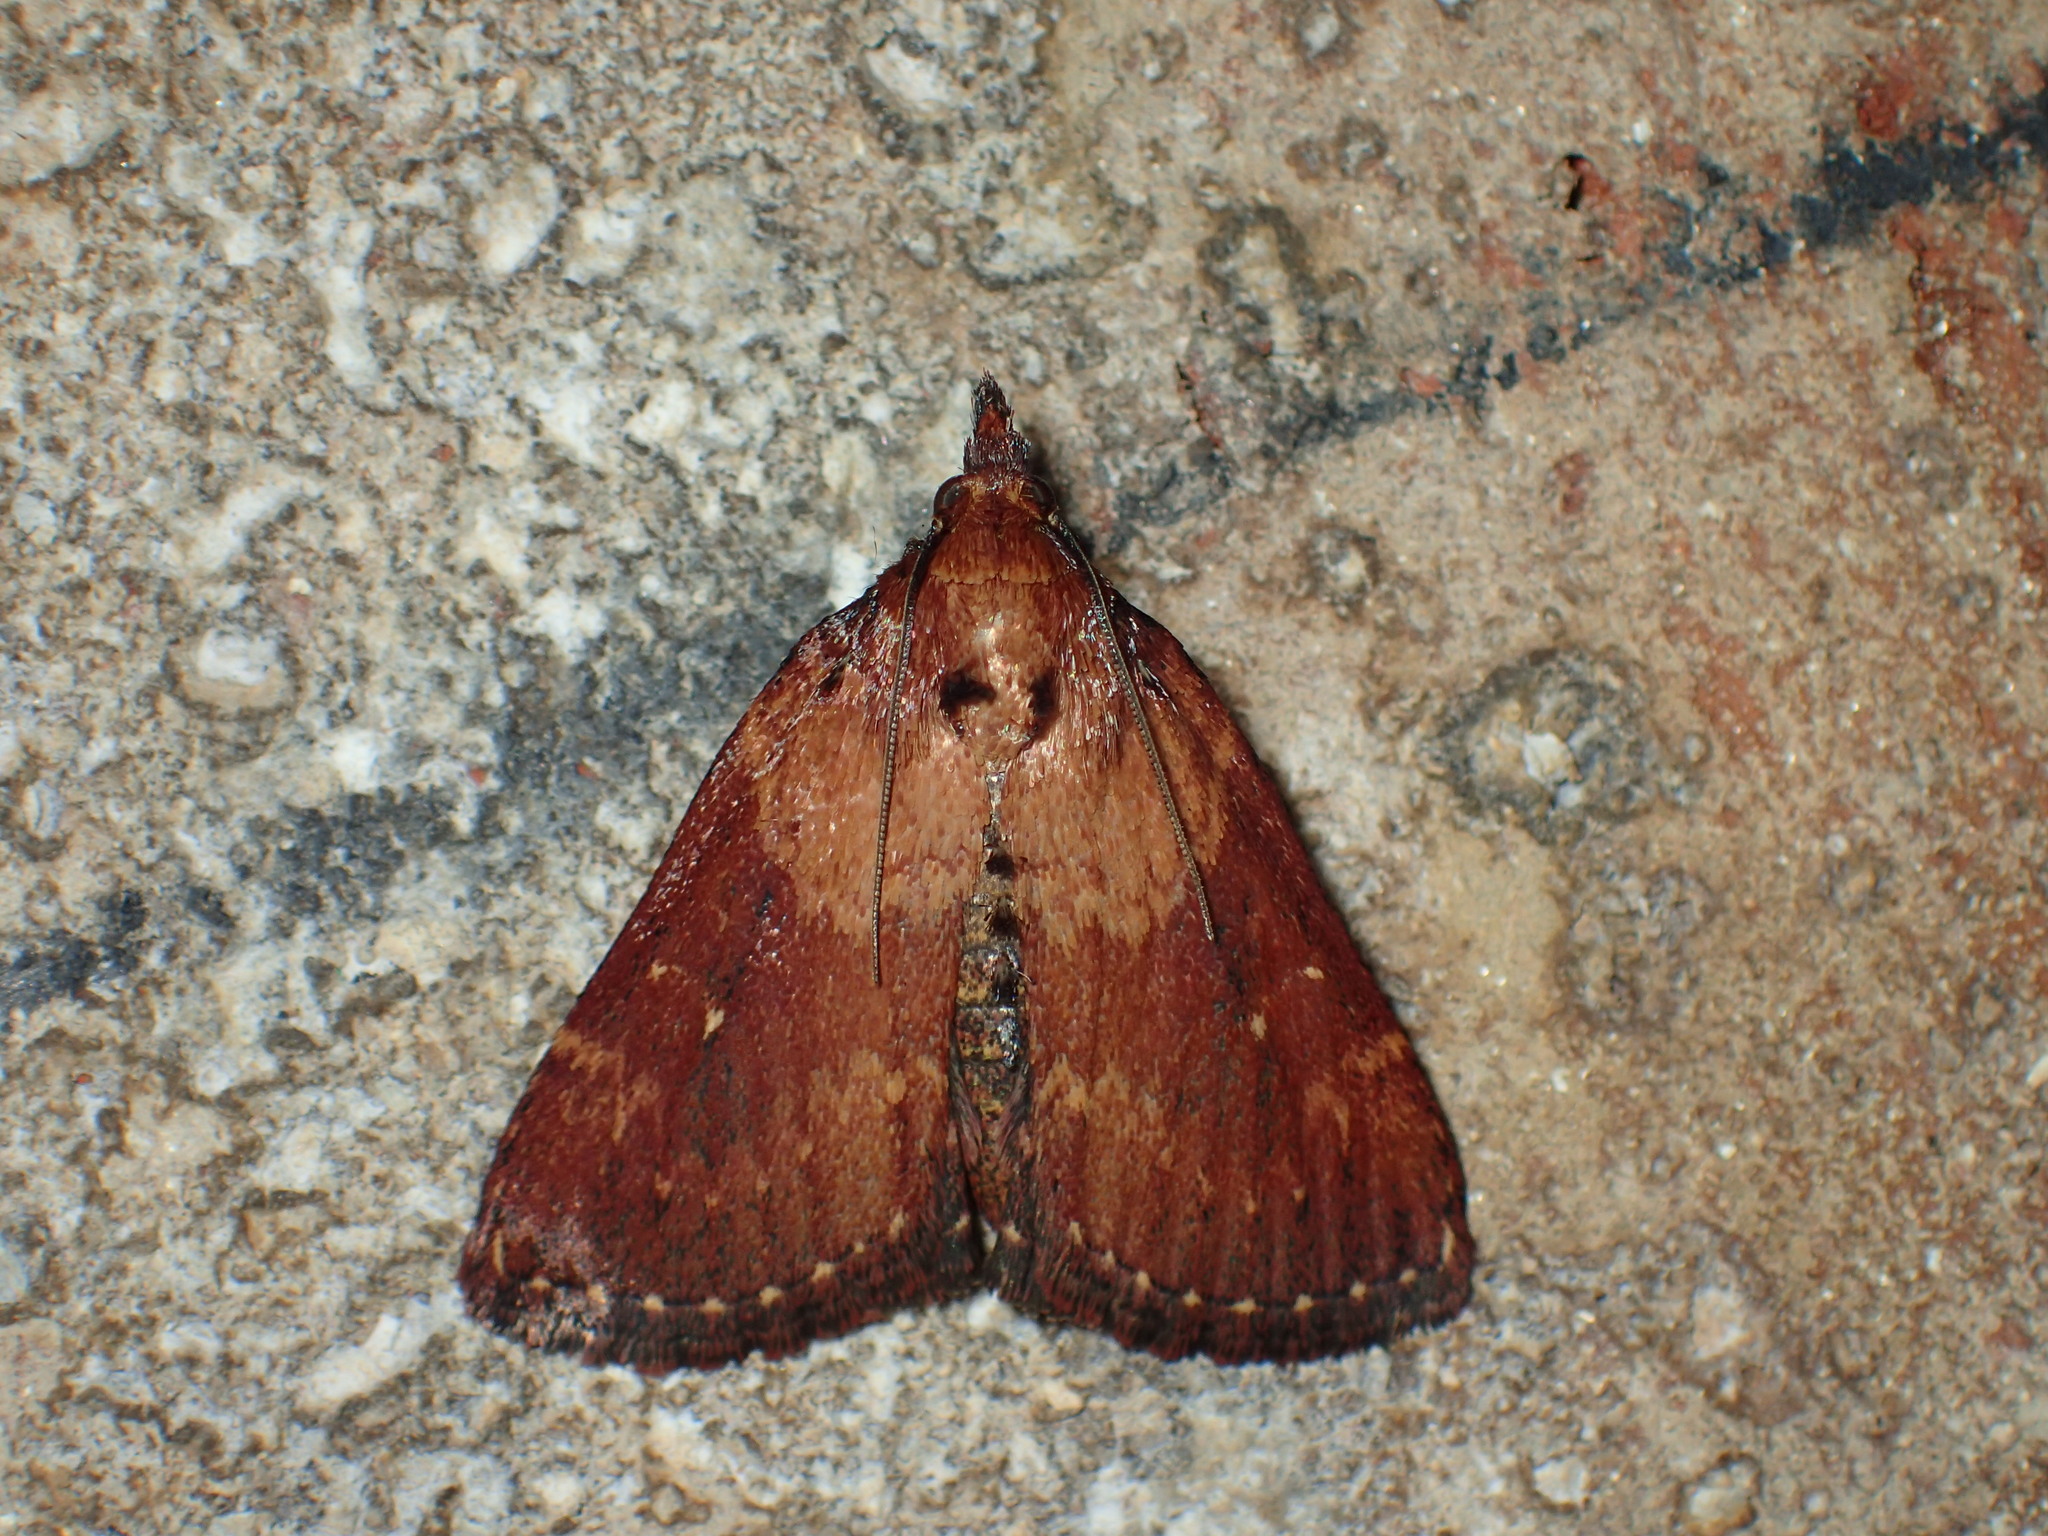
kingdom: Animalia
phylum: Arthropoda
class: Insecta
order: Lepidoptera
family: Pyralidae
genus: Omphalocera
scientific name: Omphalocera munroei
